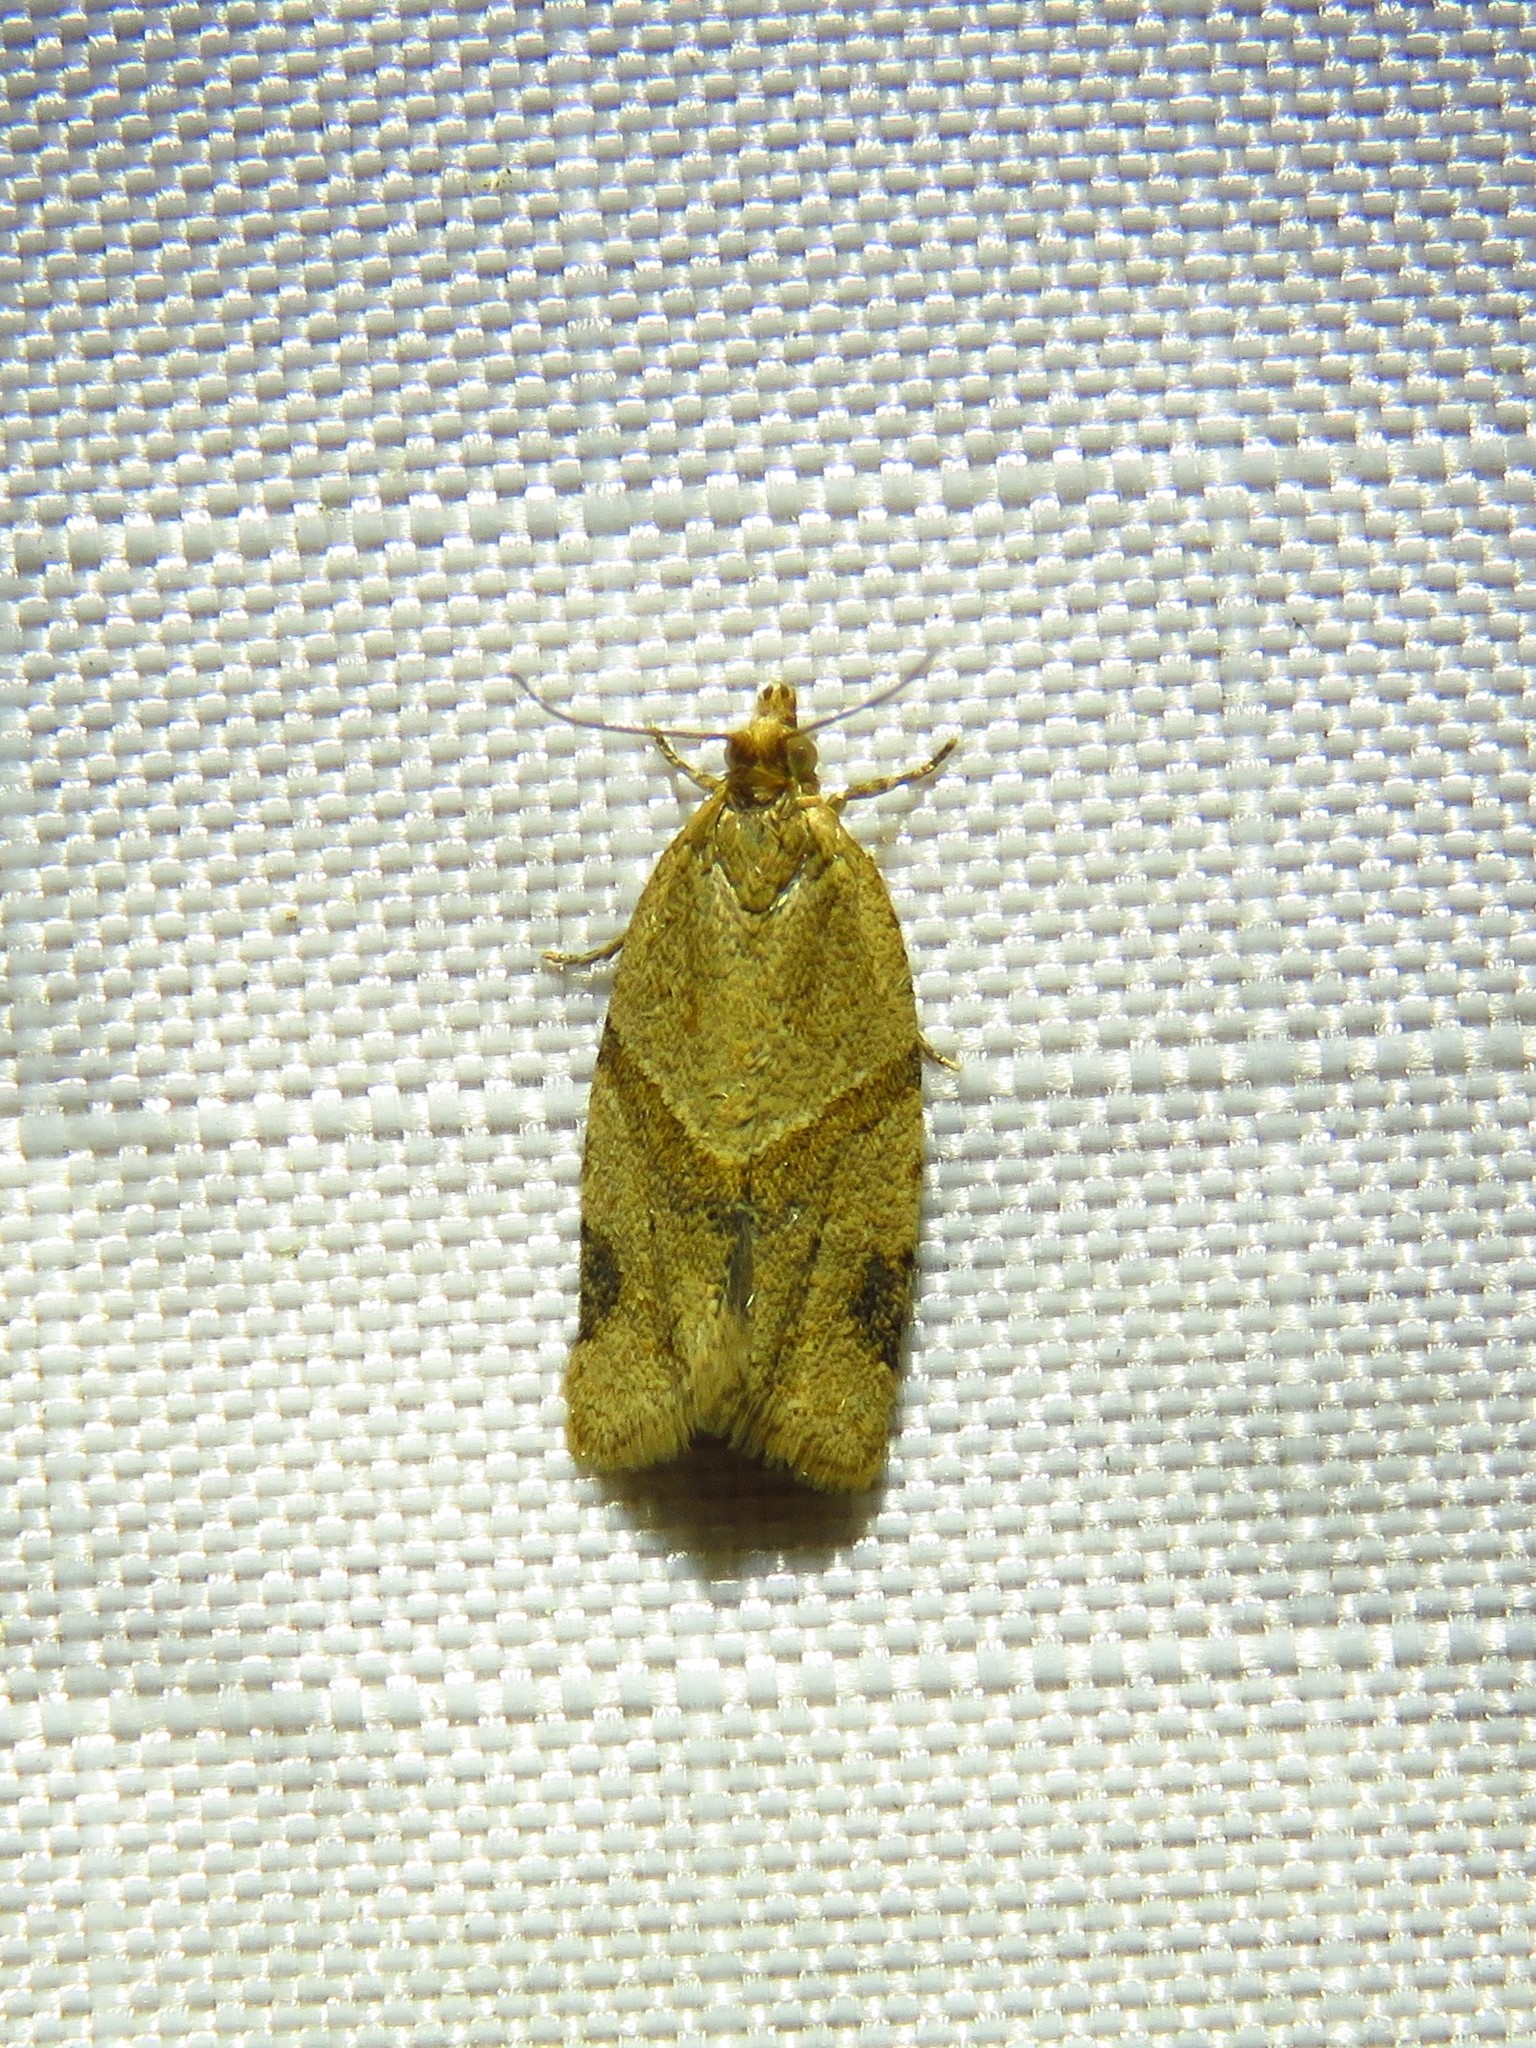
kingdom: Animalia
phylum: Arthropoda
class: Insecta
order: Lepidoptera
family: Tortricidae
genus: Clepsis
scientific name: Clepsis peritana
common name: Garden tortrix
